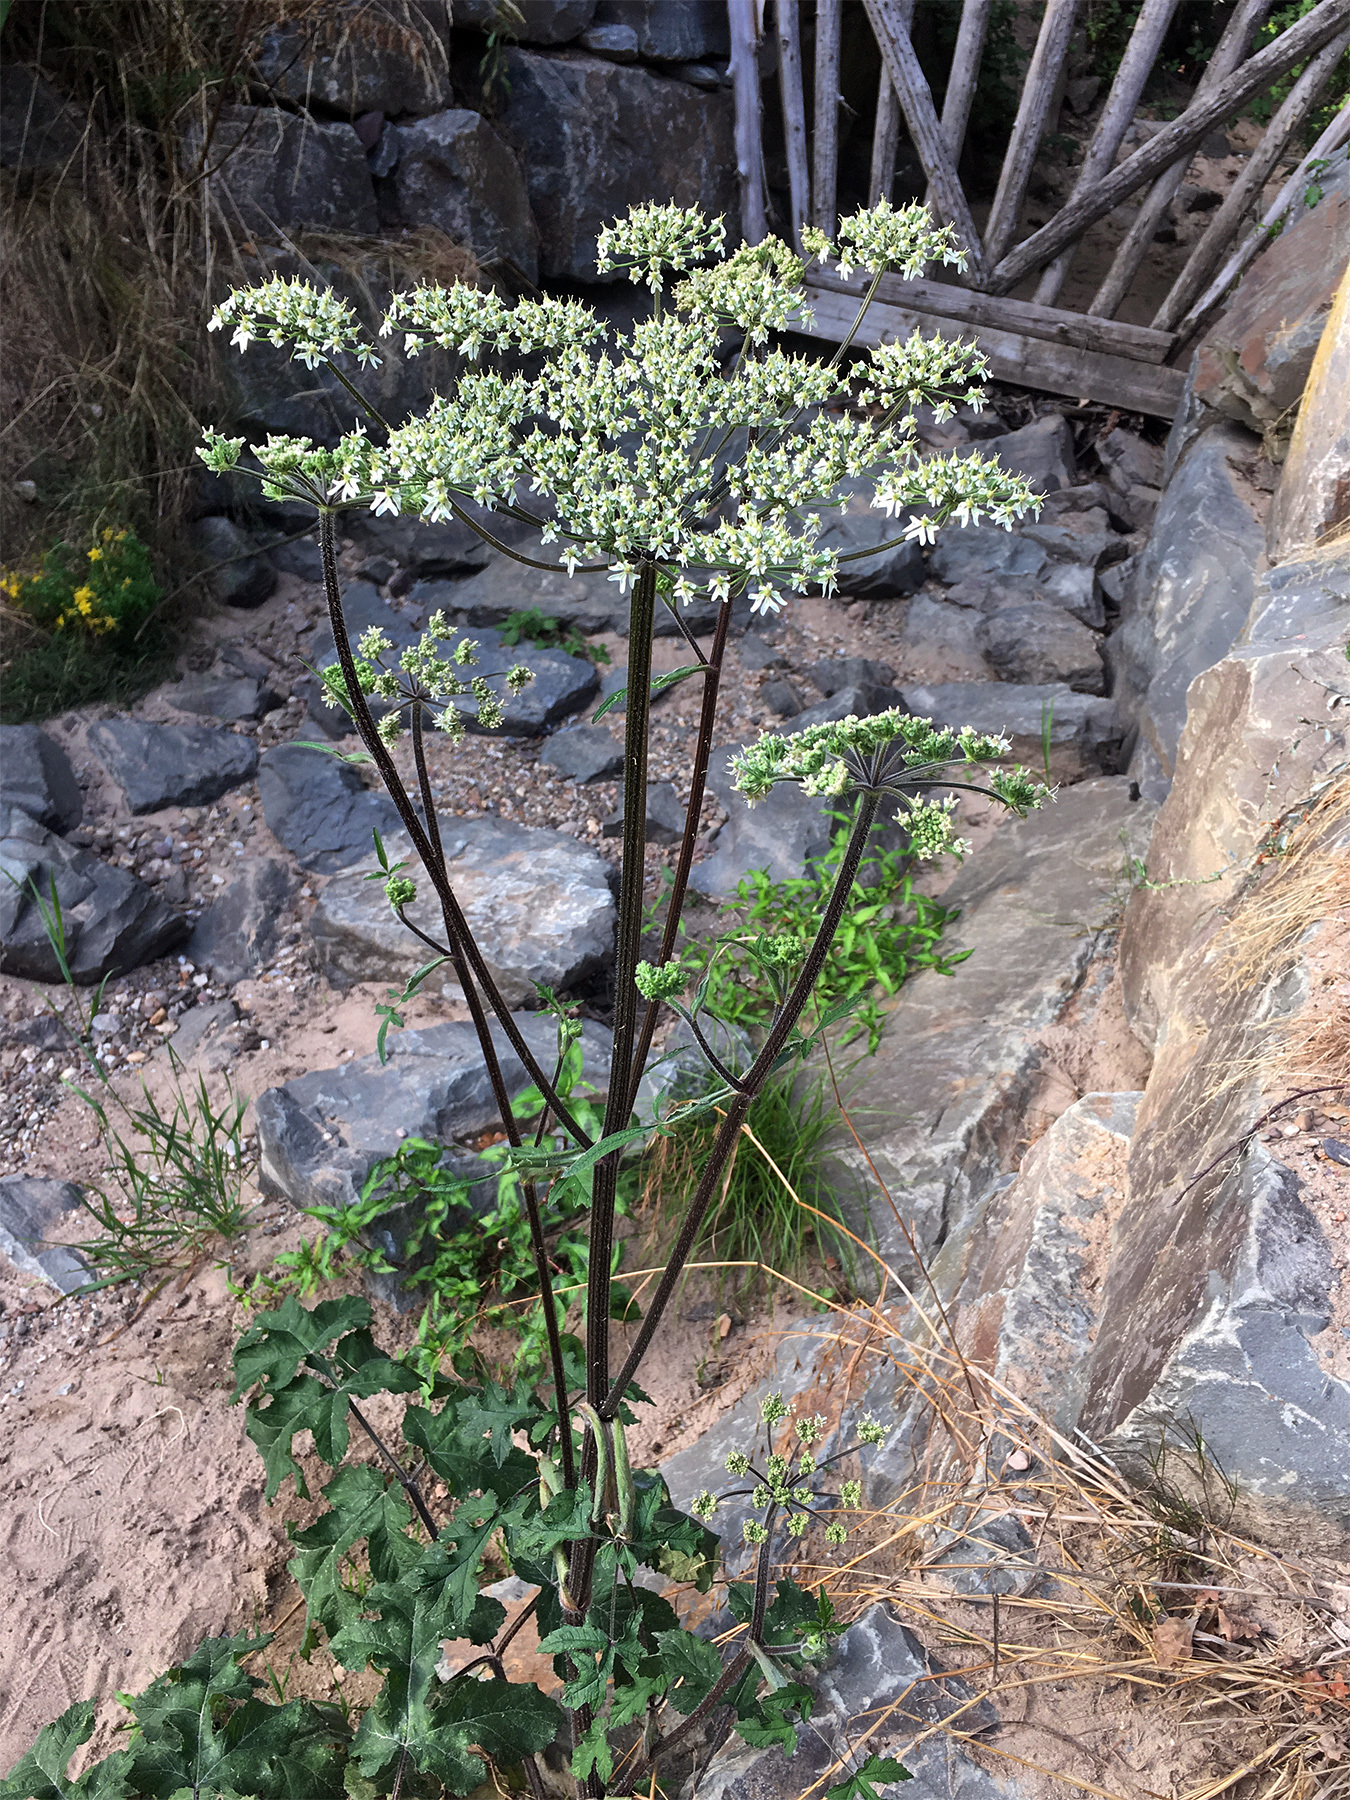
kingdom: Plantae
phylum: Tracheophyta
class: Magnoliopsida
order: Apiales
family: Apiaceae
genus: Heracleum
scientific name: Heracleum sphondylium
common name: Hogweed
